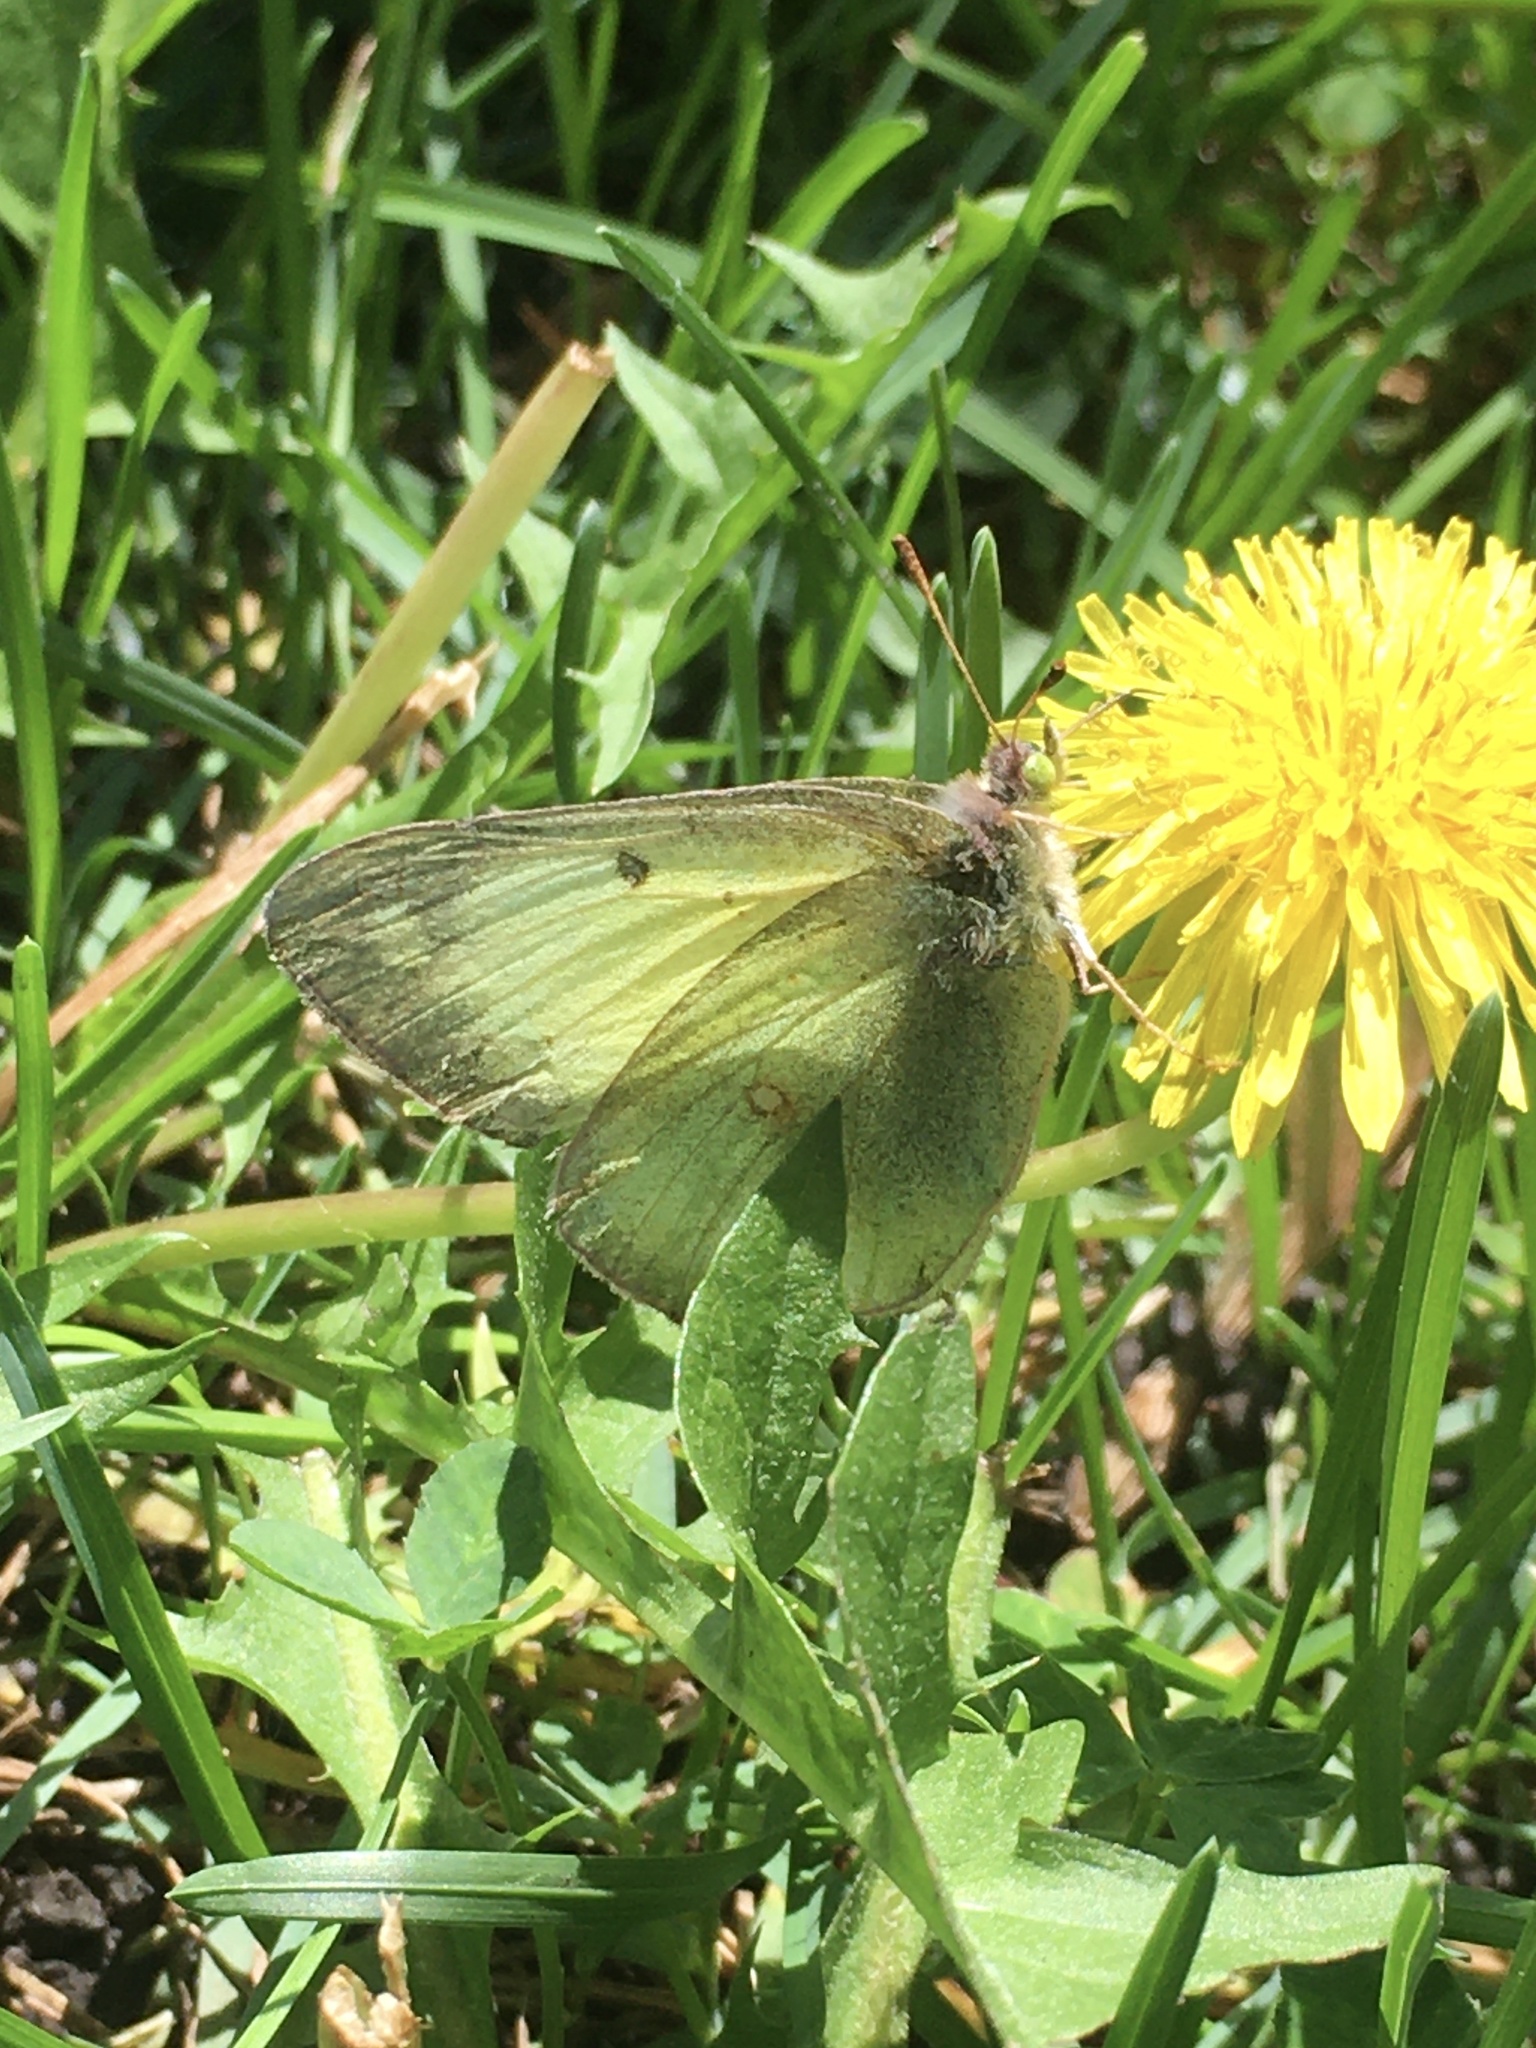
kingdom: Animalia
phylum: Arthropoda
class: Insecta
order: Lepidoptera
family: Pieridae
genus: Colias
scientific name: Colias philodice
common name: Clouded sulphur
